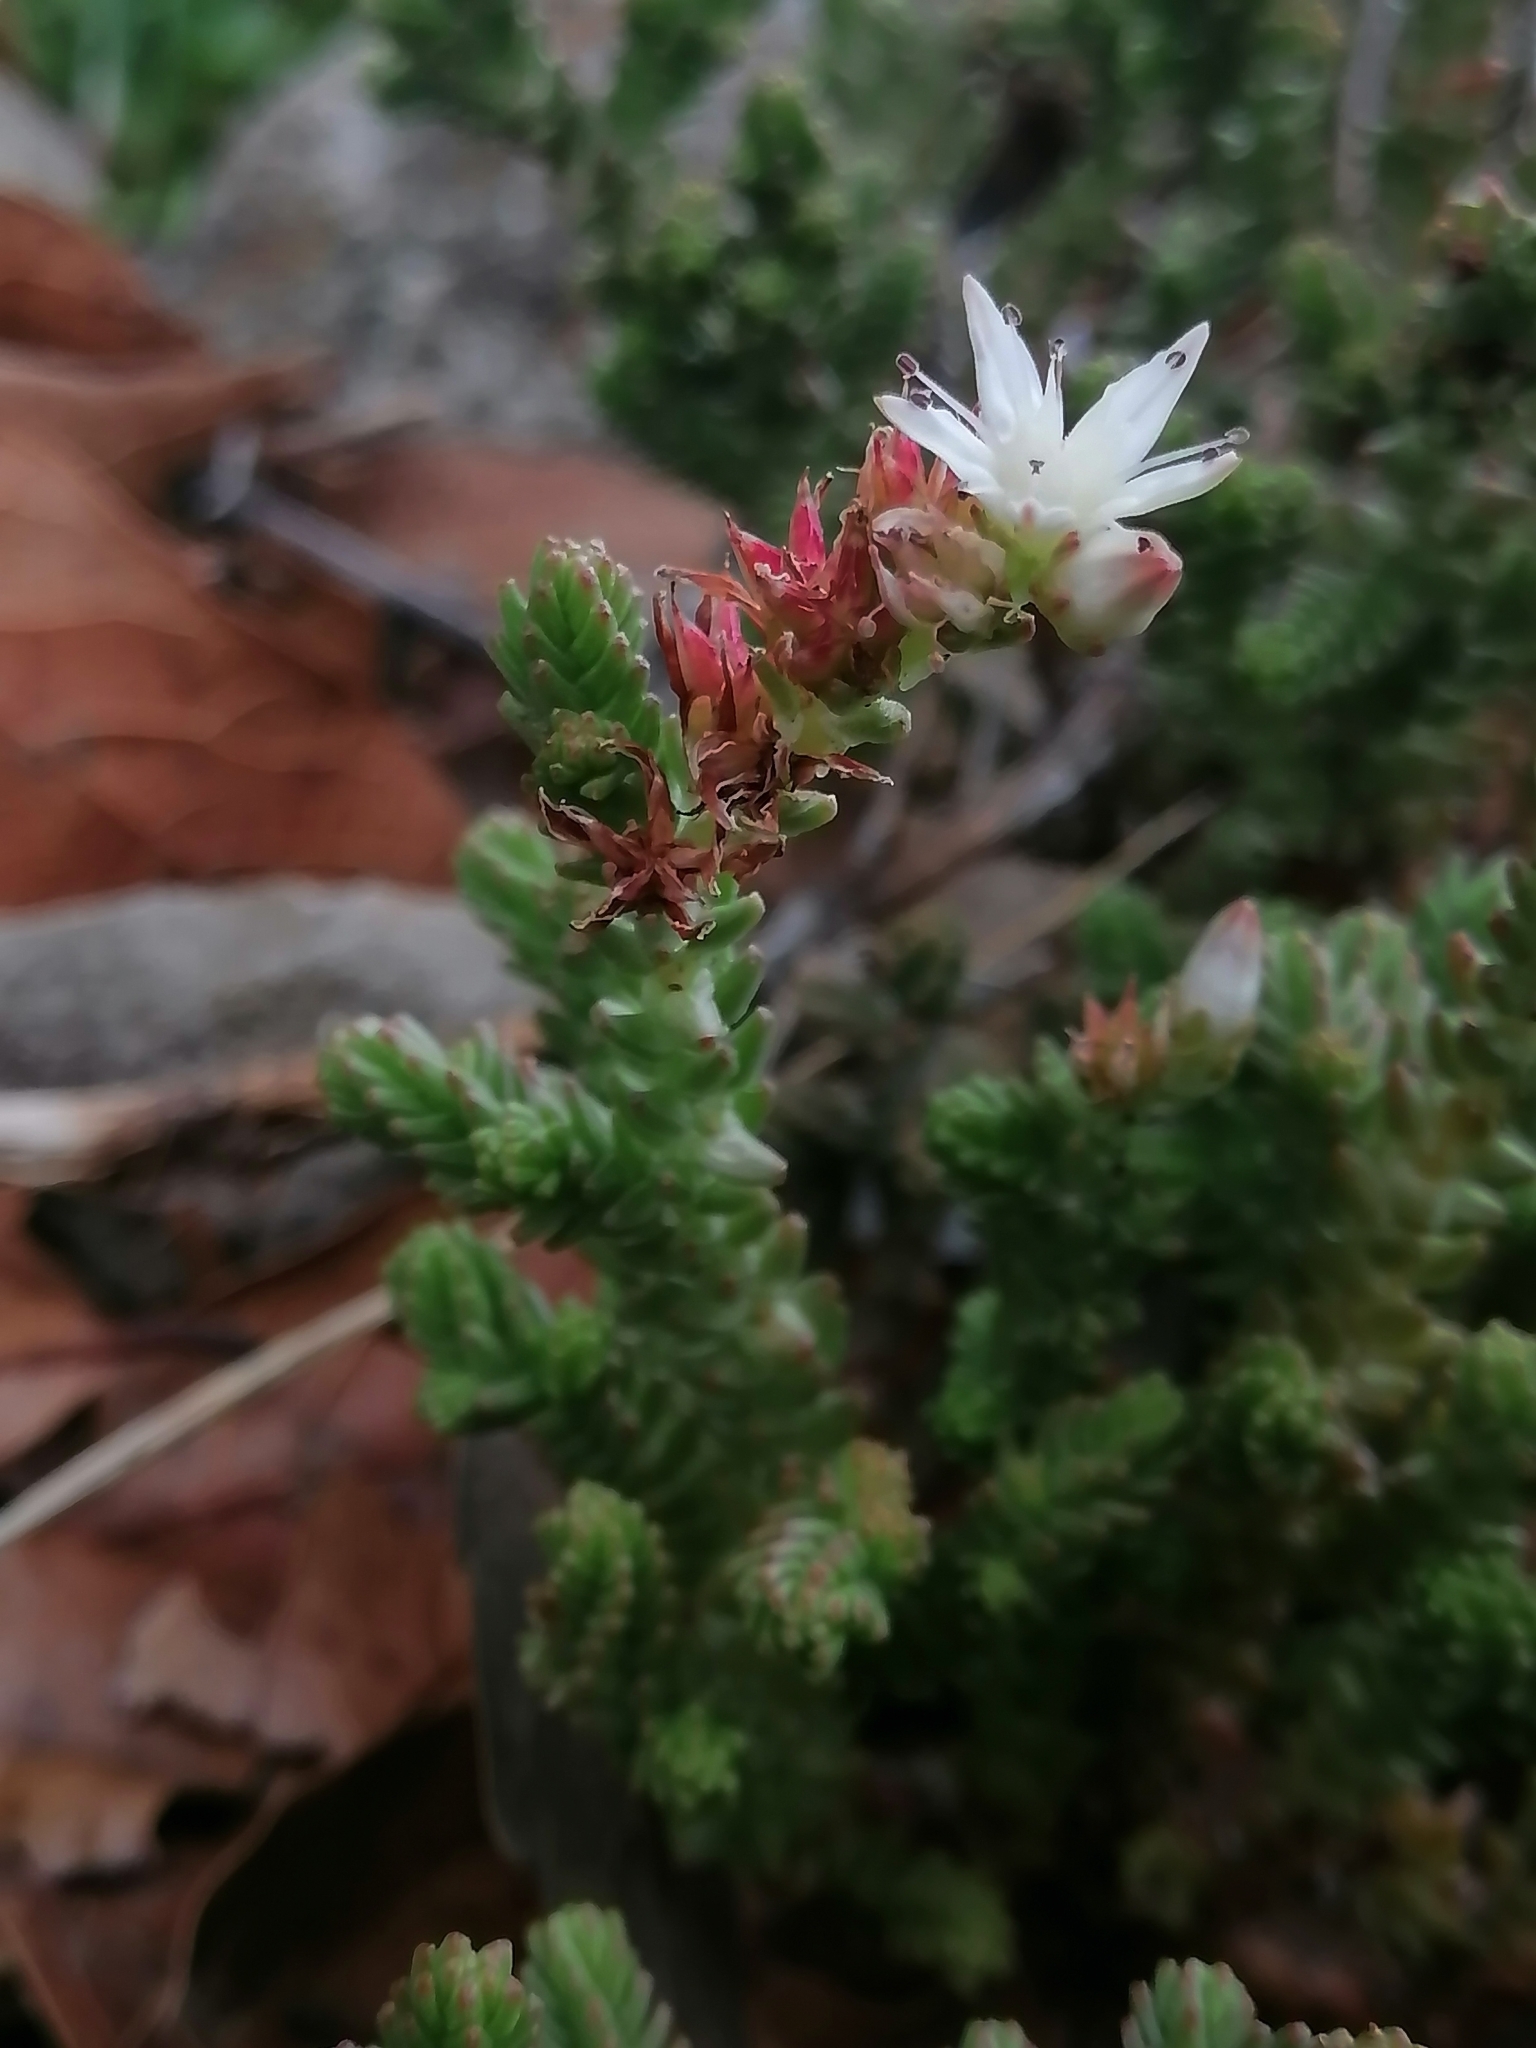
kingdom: Plantae
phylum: Tracheophyta
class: Magnoliopsida
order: Saxifragales
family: Crassulaceae
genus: Sedum
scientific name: Sedum moranense
